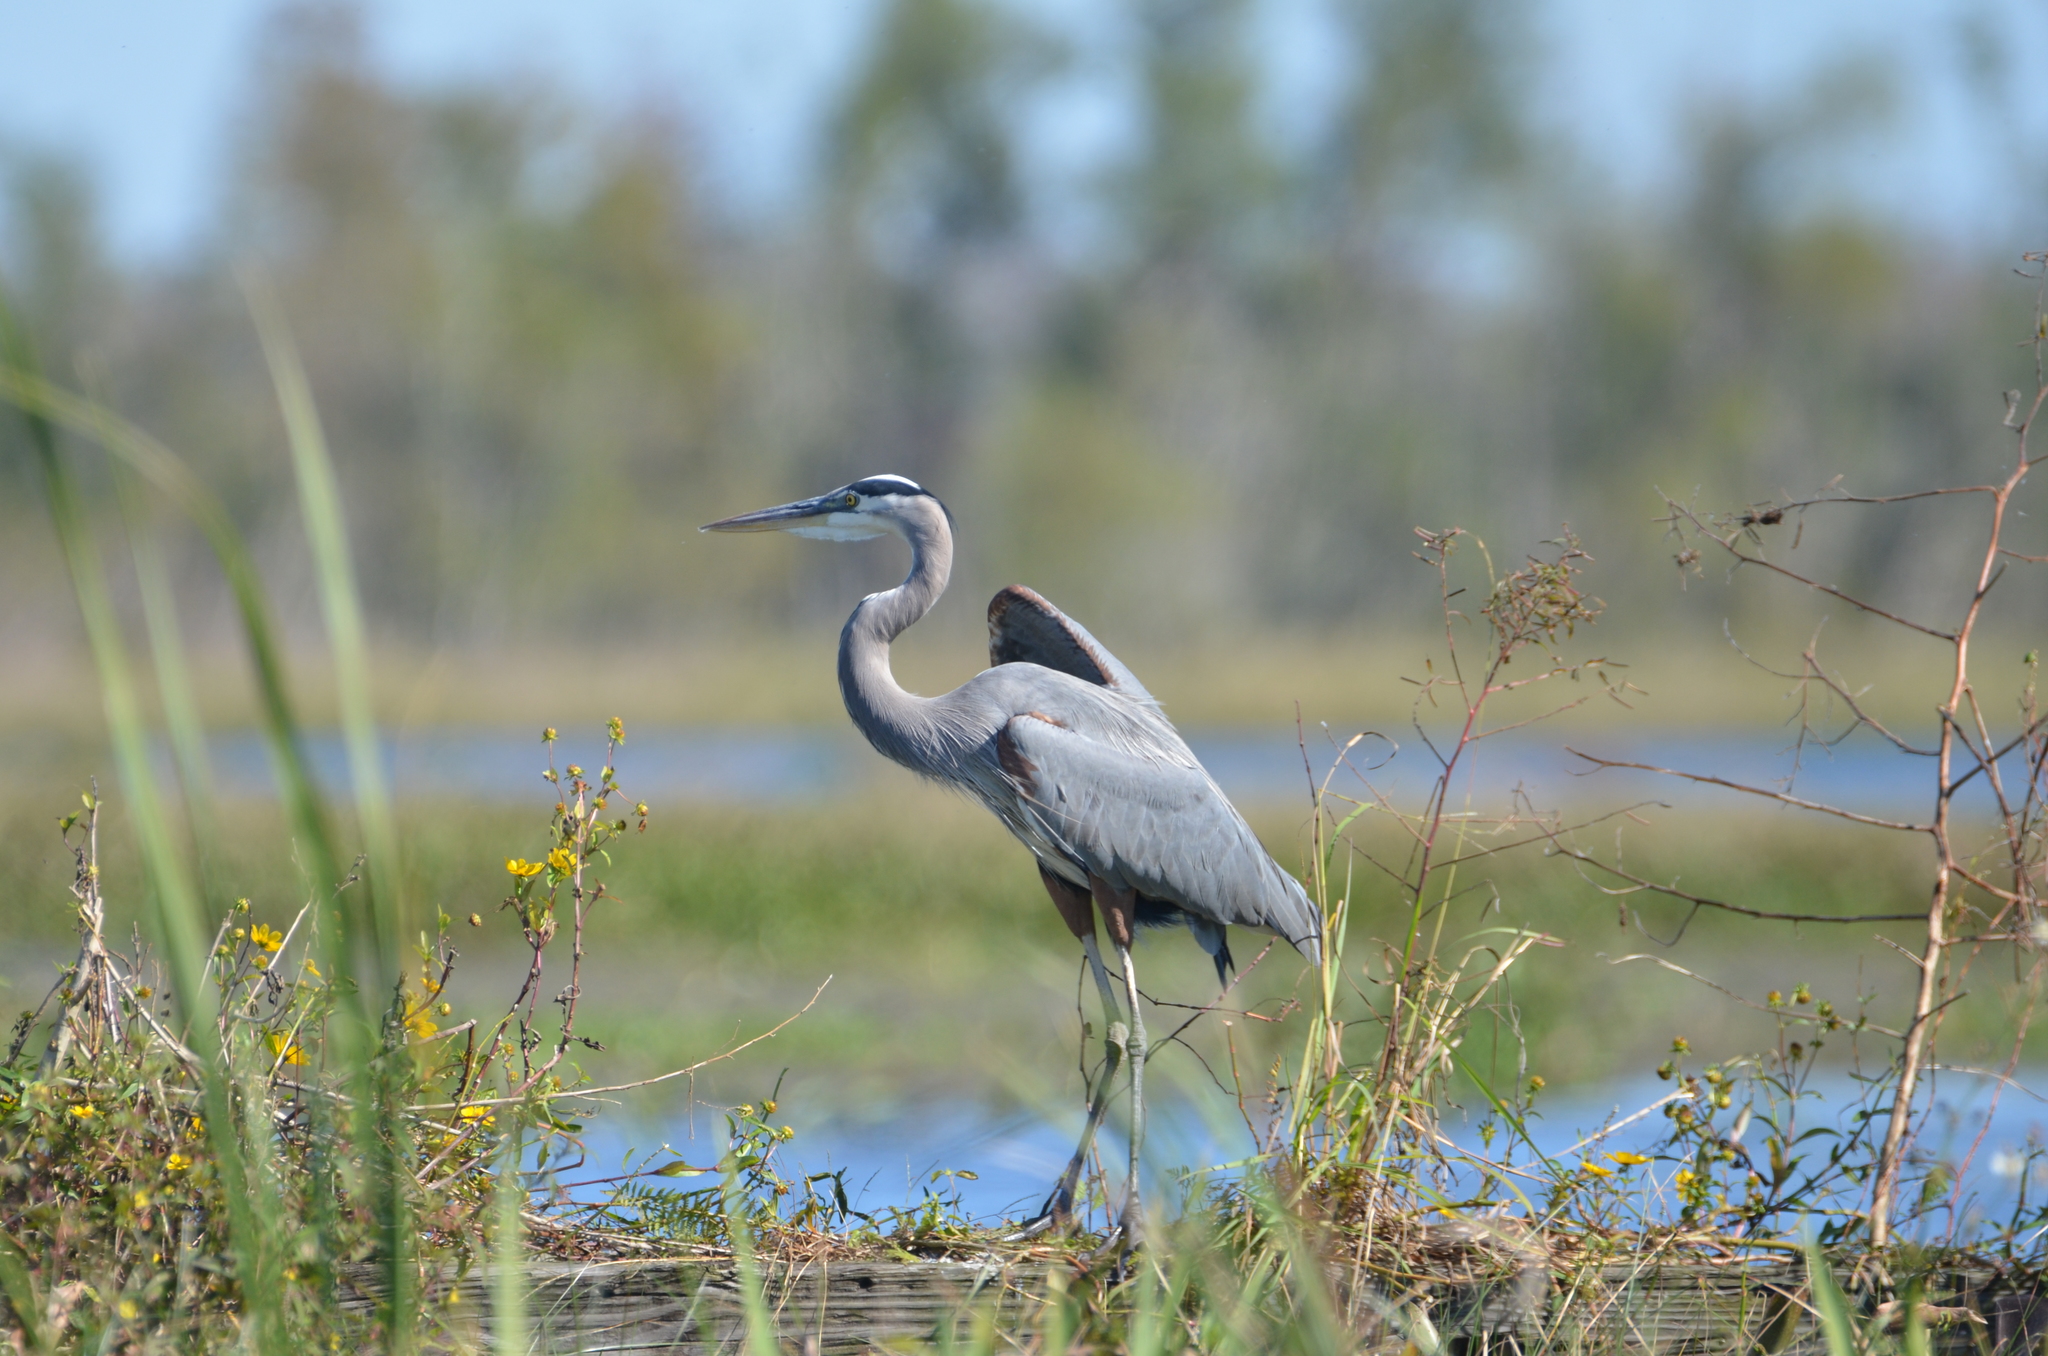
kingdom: Animalia
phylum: Chordata
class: Aves
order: Pelecaniformes
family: Ardeidae
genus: Ardea
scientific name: Ardea herodias
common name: Great blue heron
